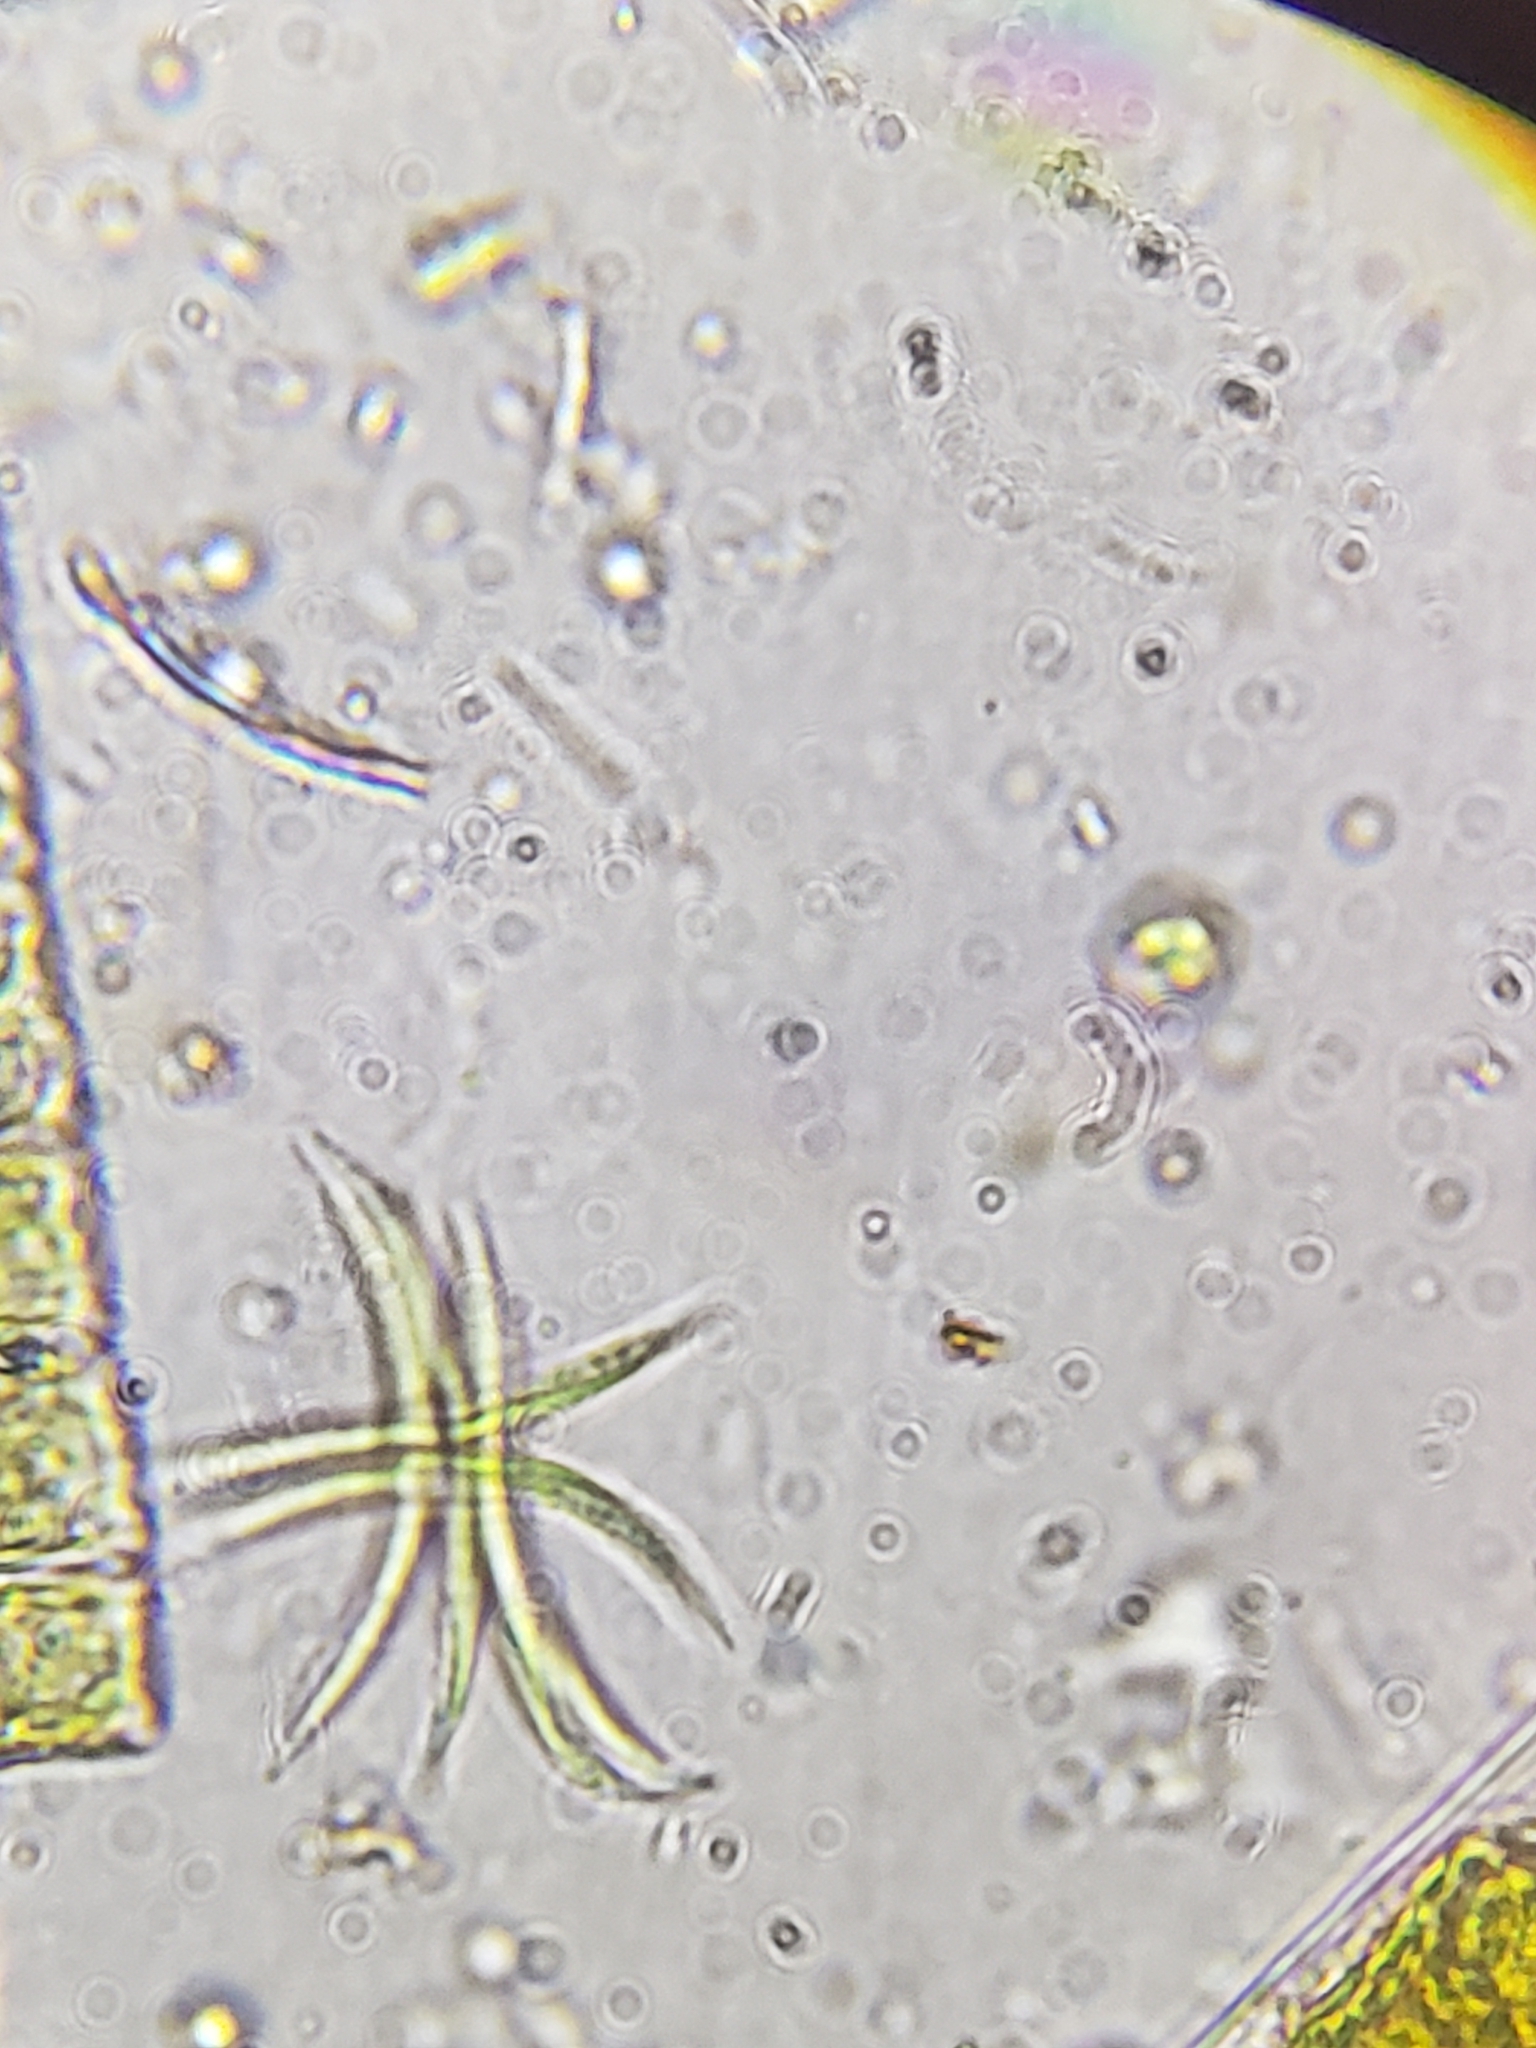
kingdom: Plantae
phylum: Chlorophyta
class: Chlorophyceae
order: Sphaeropleales
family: Selenastraceae
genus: Ankistrodesmus
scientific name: Ankistrodesmus falcatus
